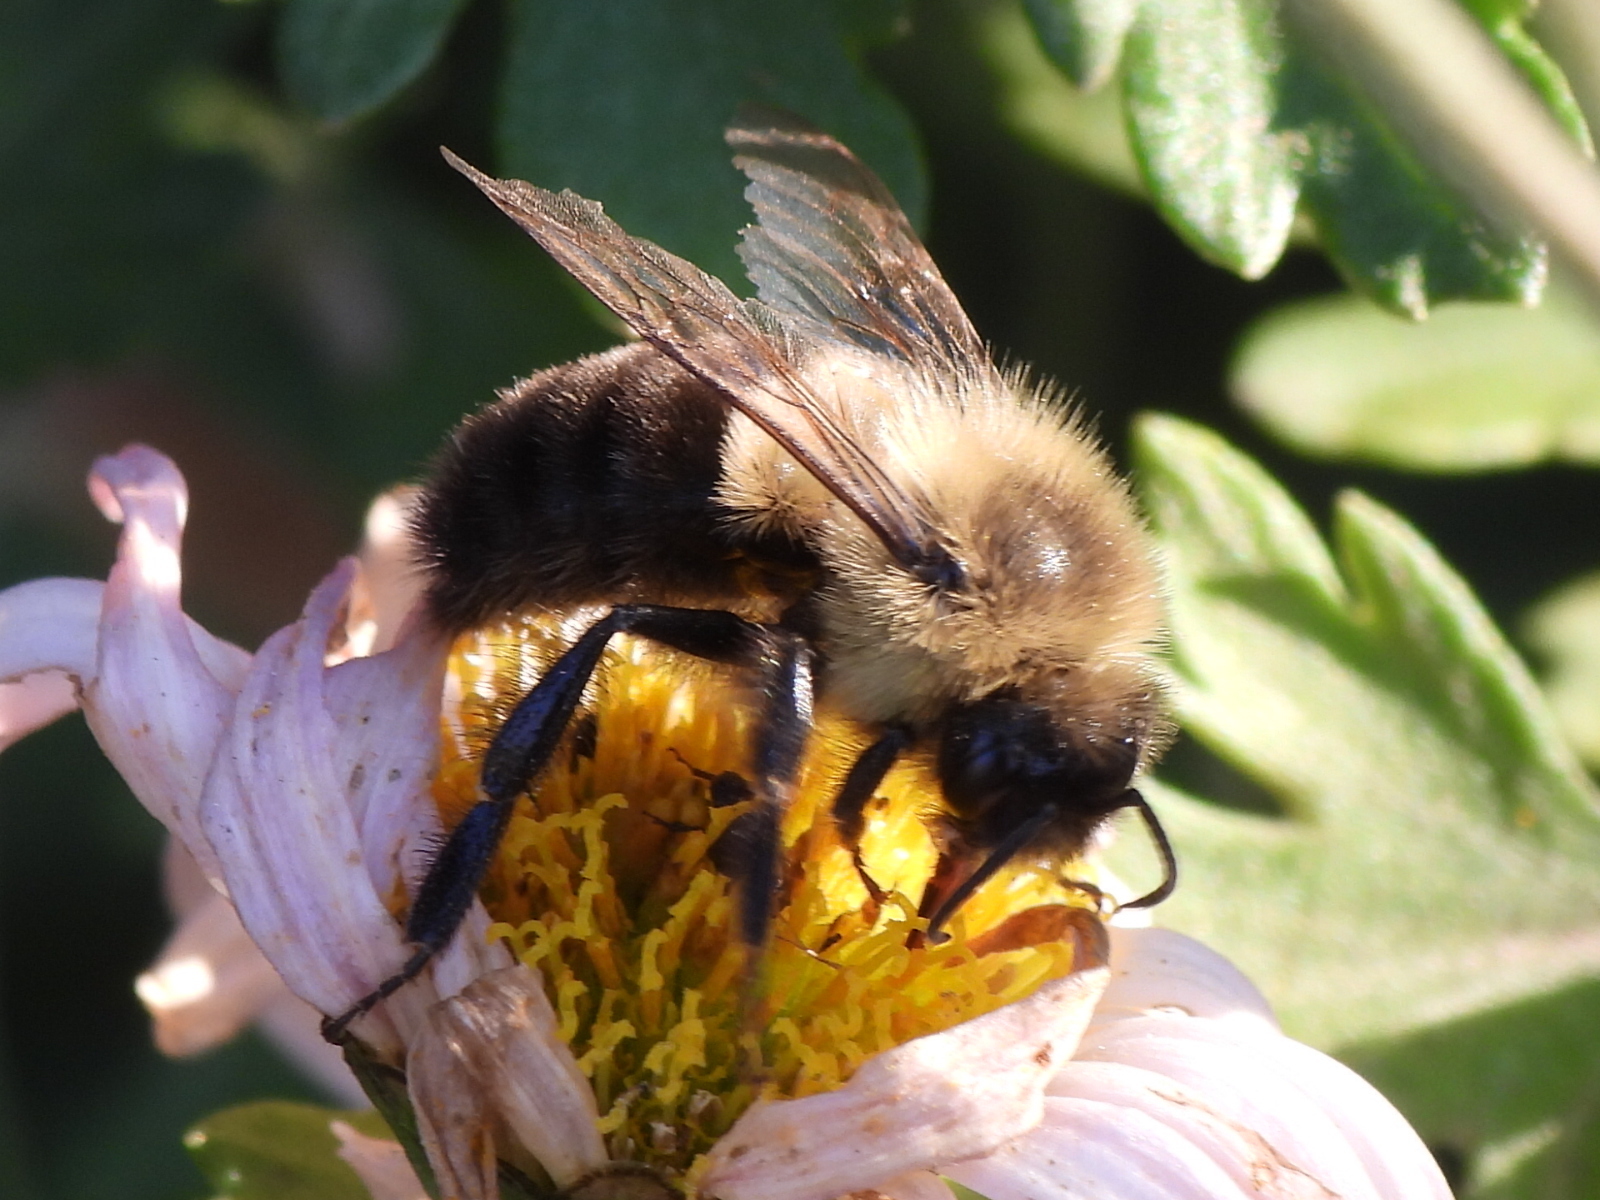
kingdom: Animalia
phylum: Arthropoda
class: Insecta
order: Hymenoptera
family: Apidae
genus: Bombus
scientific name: Bombus impatiens
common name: Common eastern bumble bee
